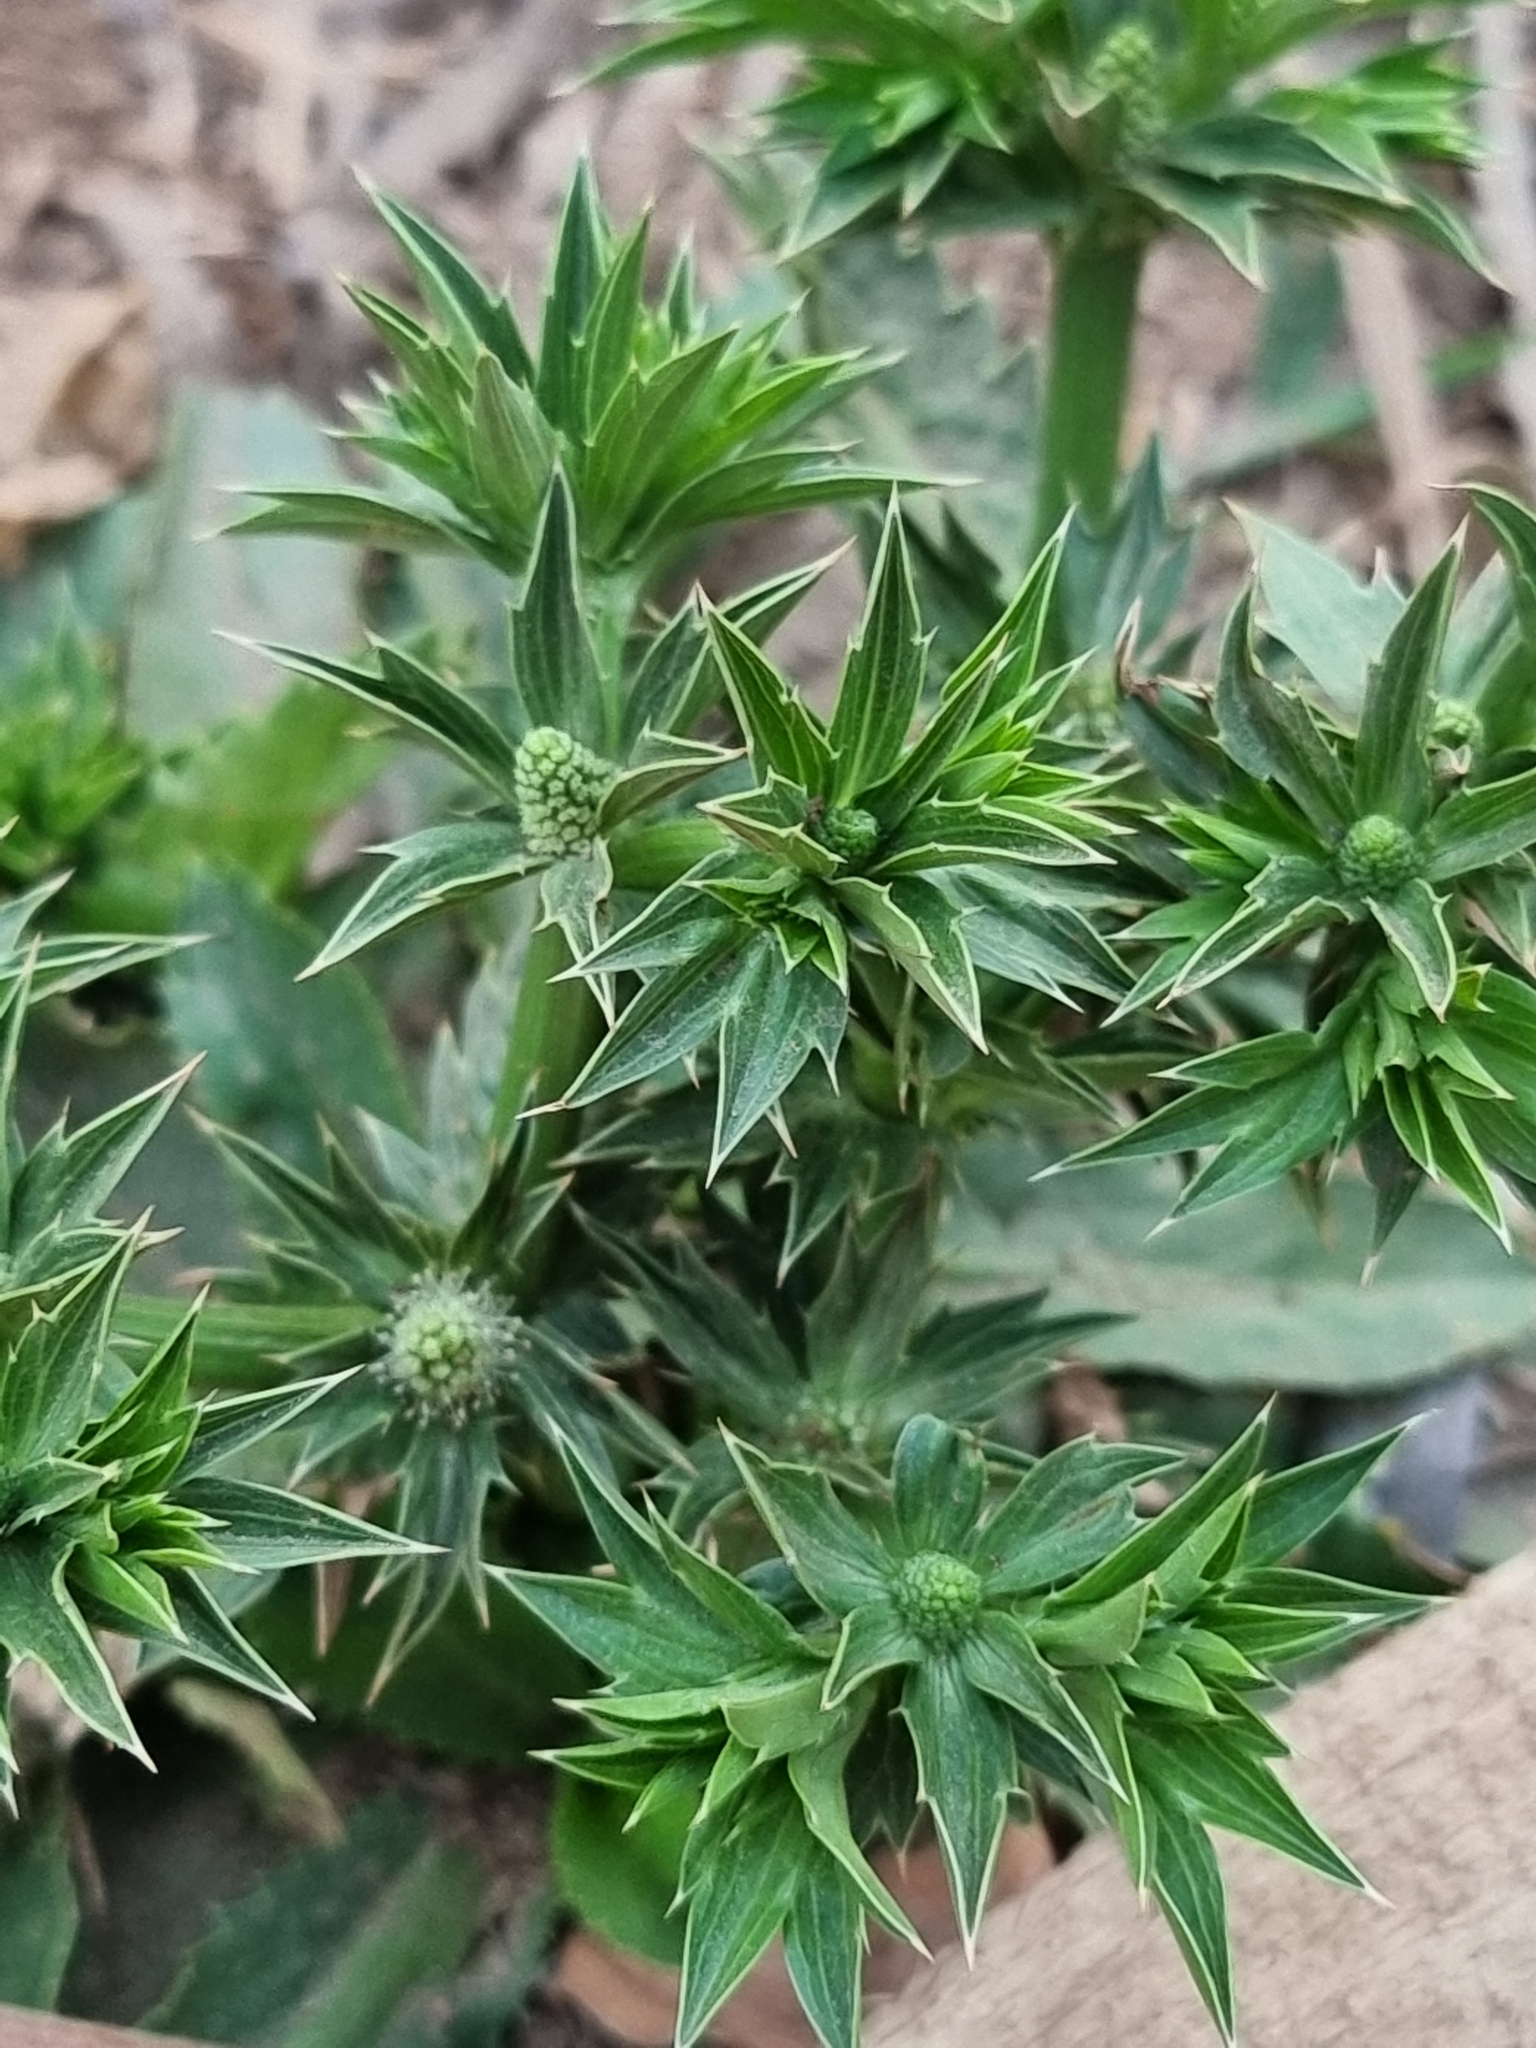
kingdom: Plantae
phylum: Tracheophyta
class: Magnoliopsida
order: Apiales
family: Apiaceae
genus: Eryngium
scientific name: Eryngium foetidum
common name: Fitweed
